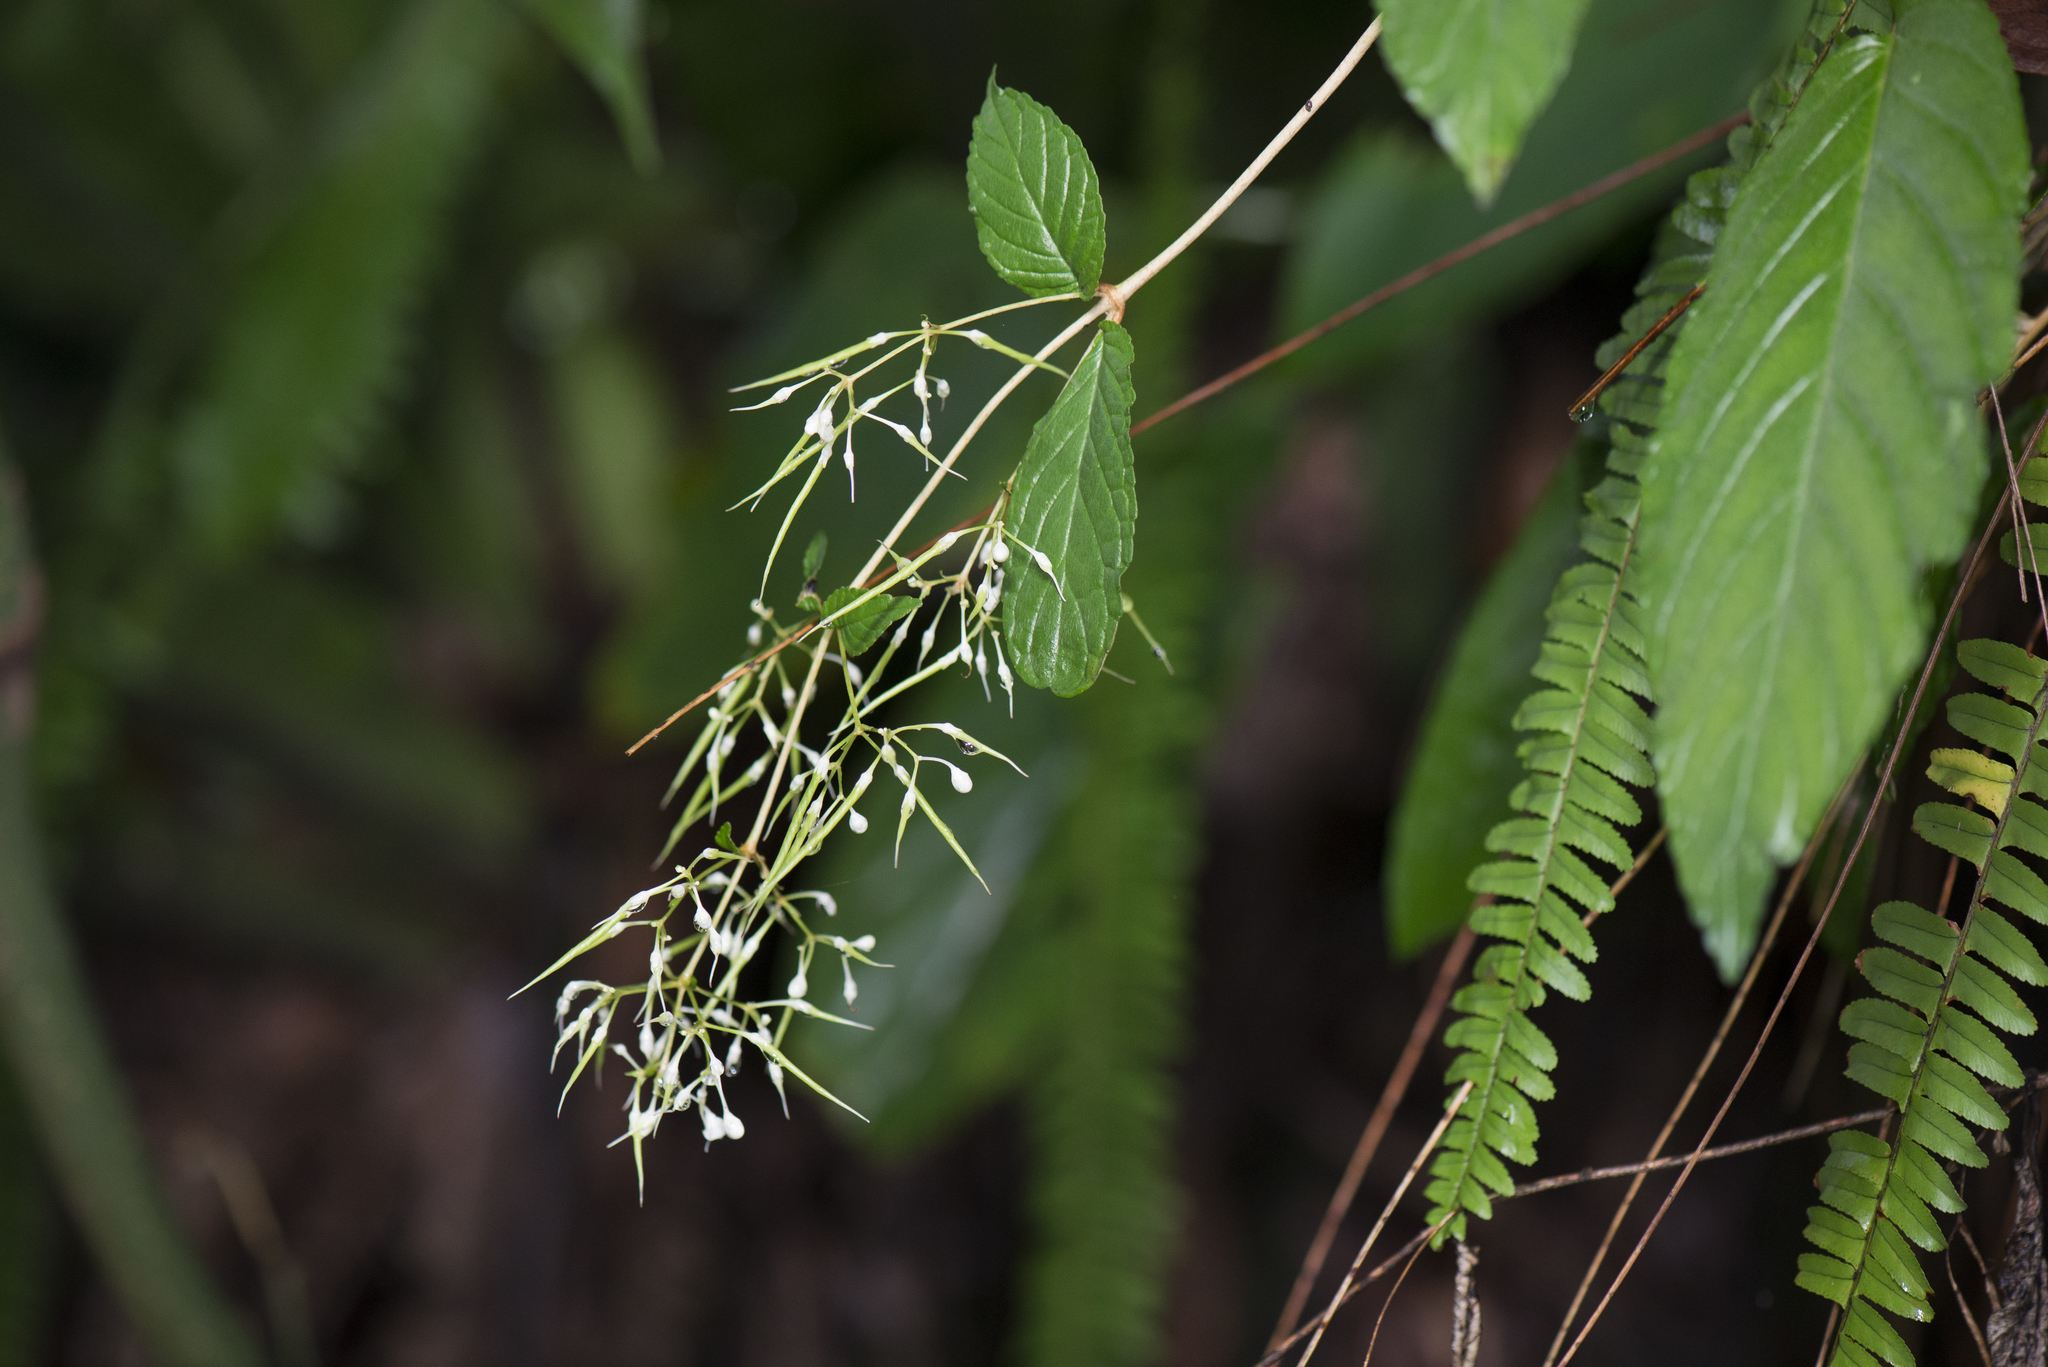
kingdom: Plantae
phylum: Tracheophyta
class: Magnoliopsida
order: Lamiales
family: Gesneriaceae
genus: Paraboea
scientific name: Paraboea swinhoei
